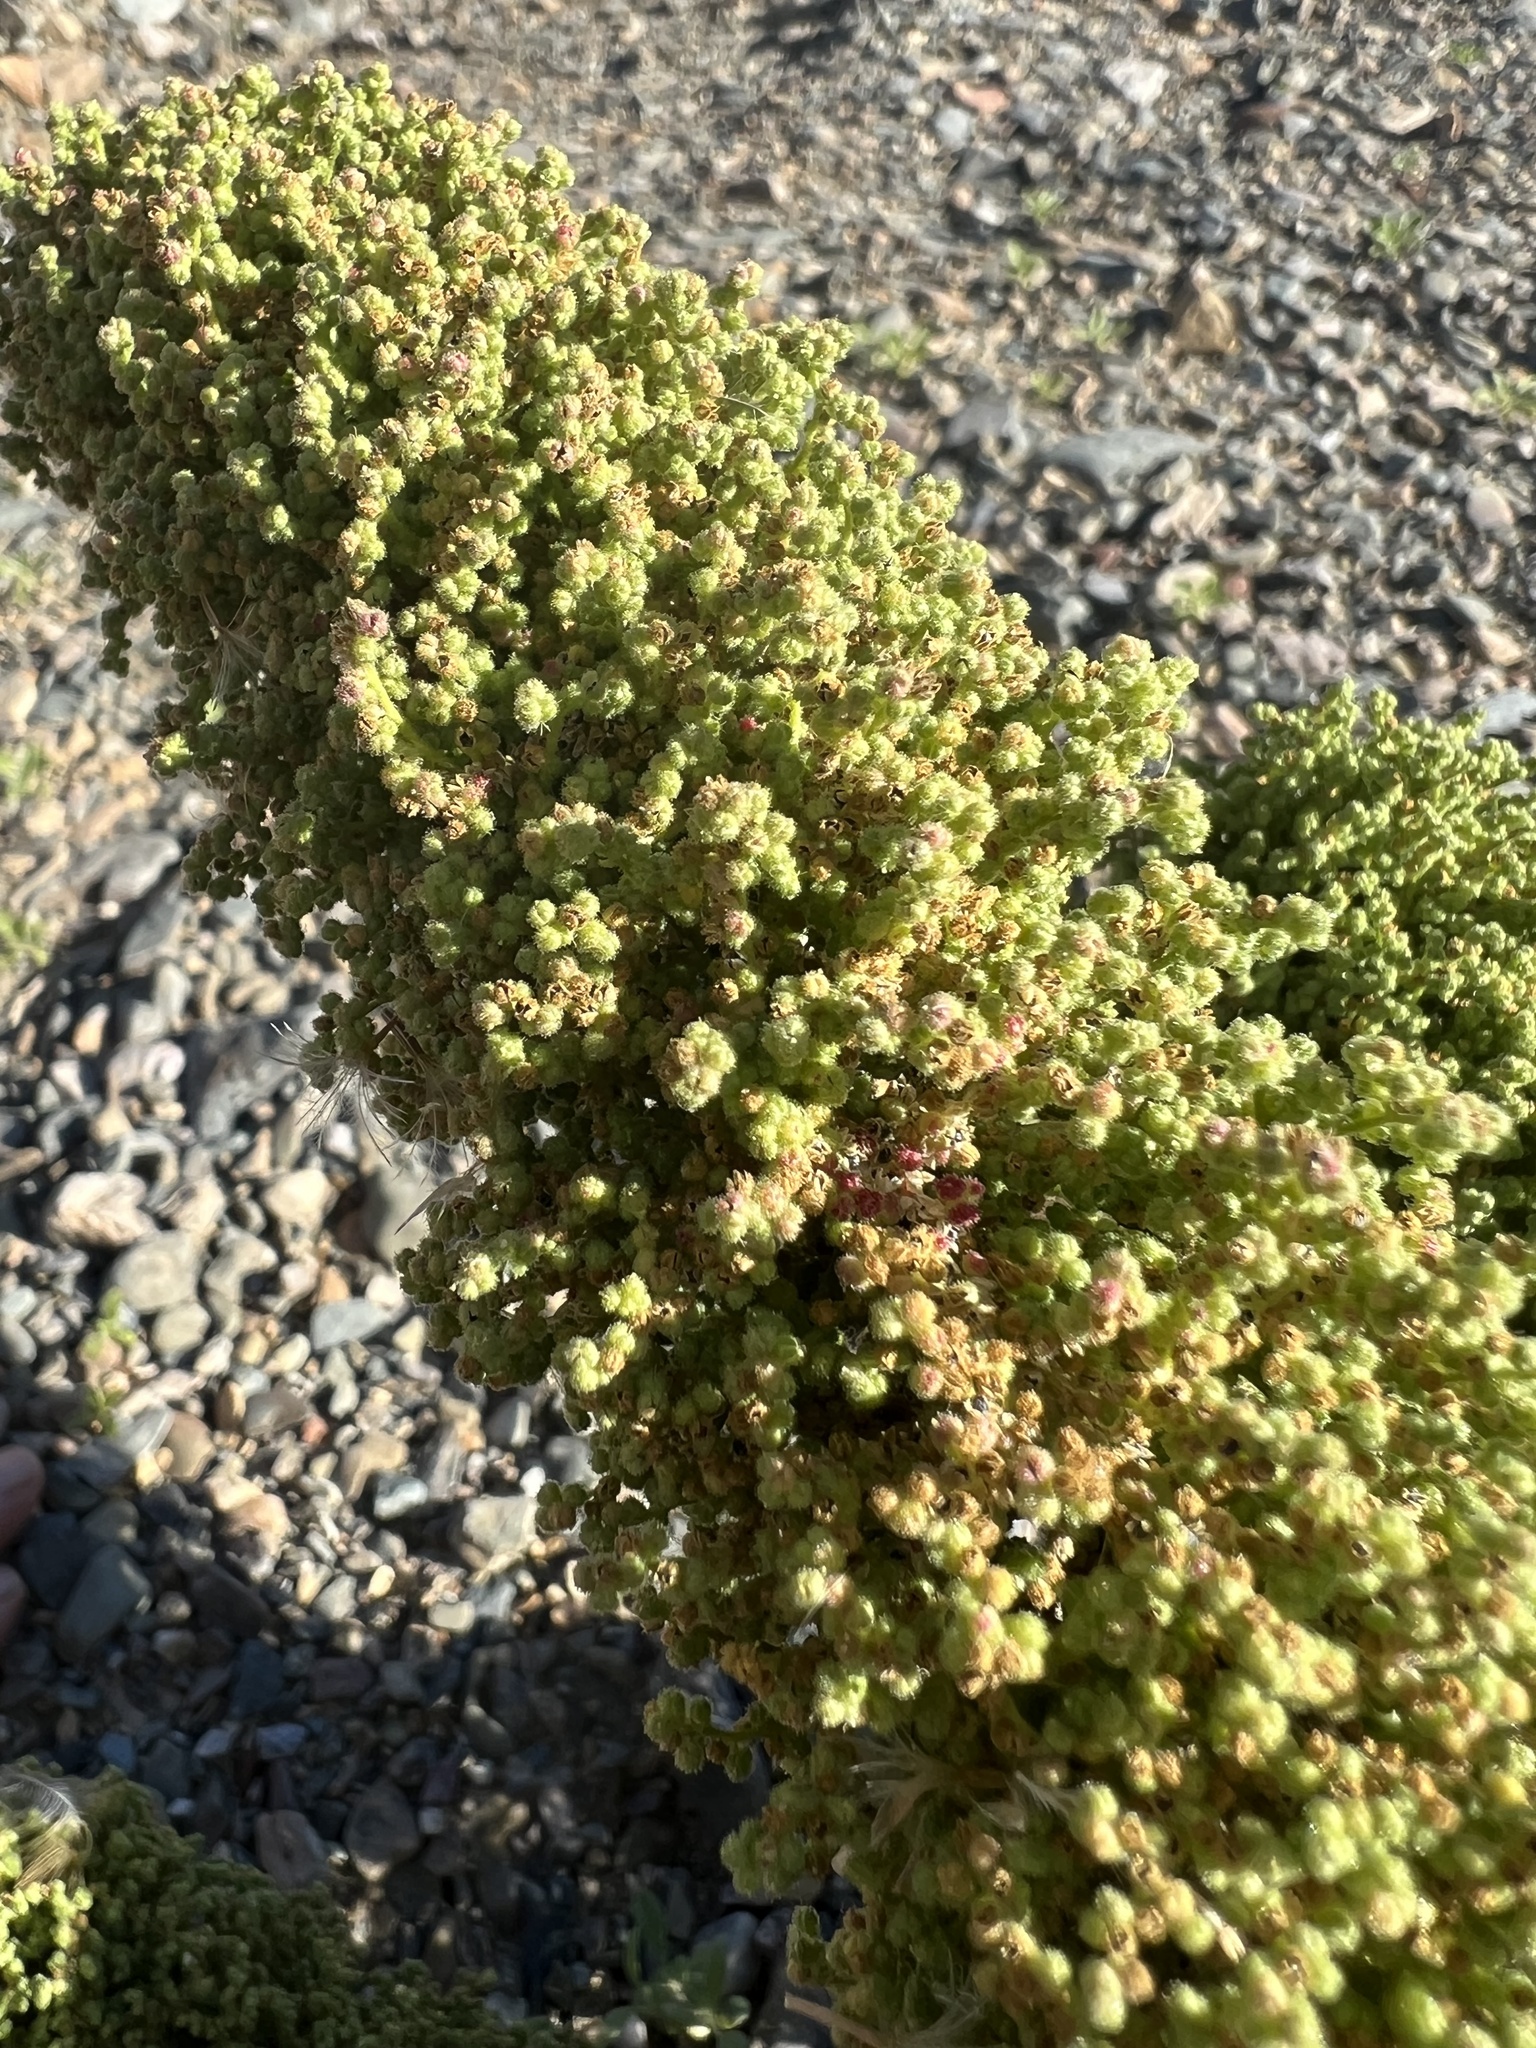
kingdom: Plantae
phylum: Tracheophyta
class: Magnoliopsida
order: Caryophyllales
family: Amaranthaceae
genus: Dysphania
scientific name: Dysphania botrys
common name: Feather-geranium
